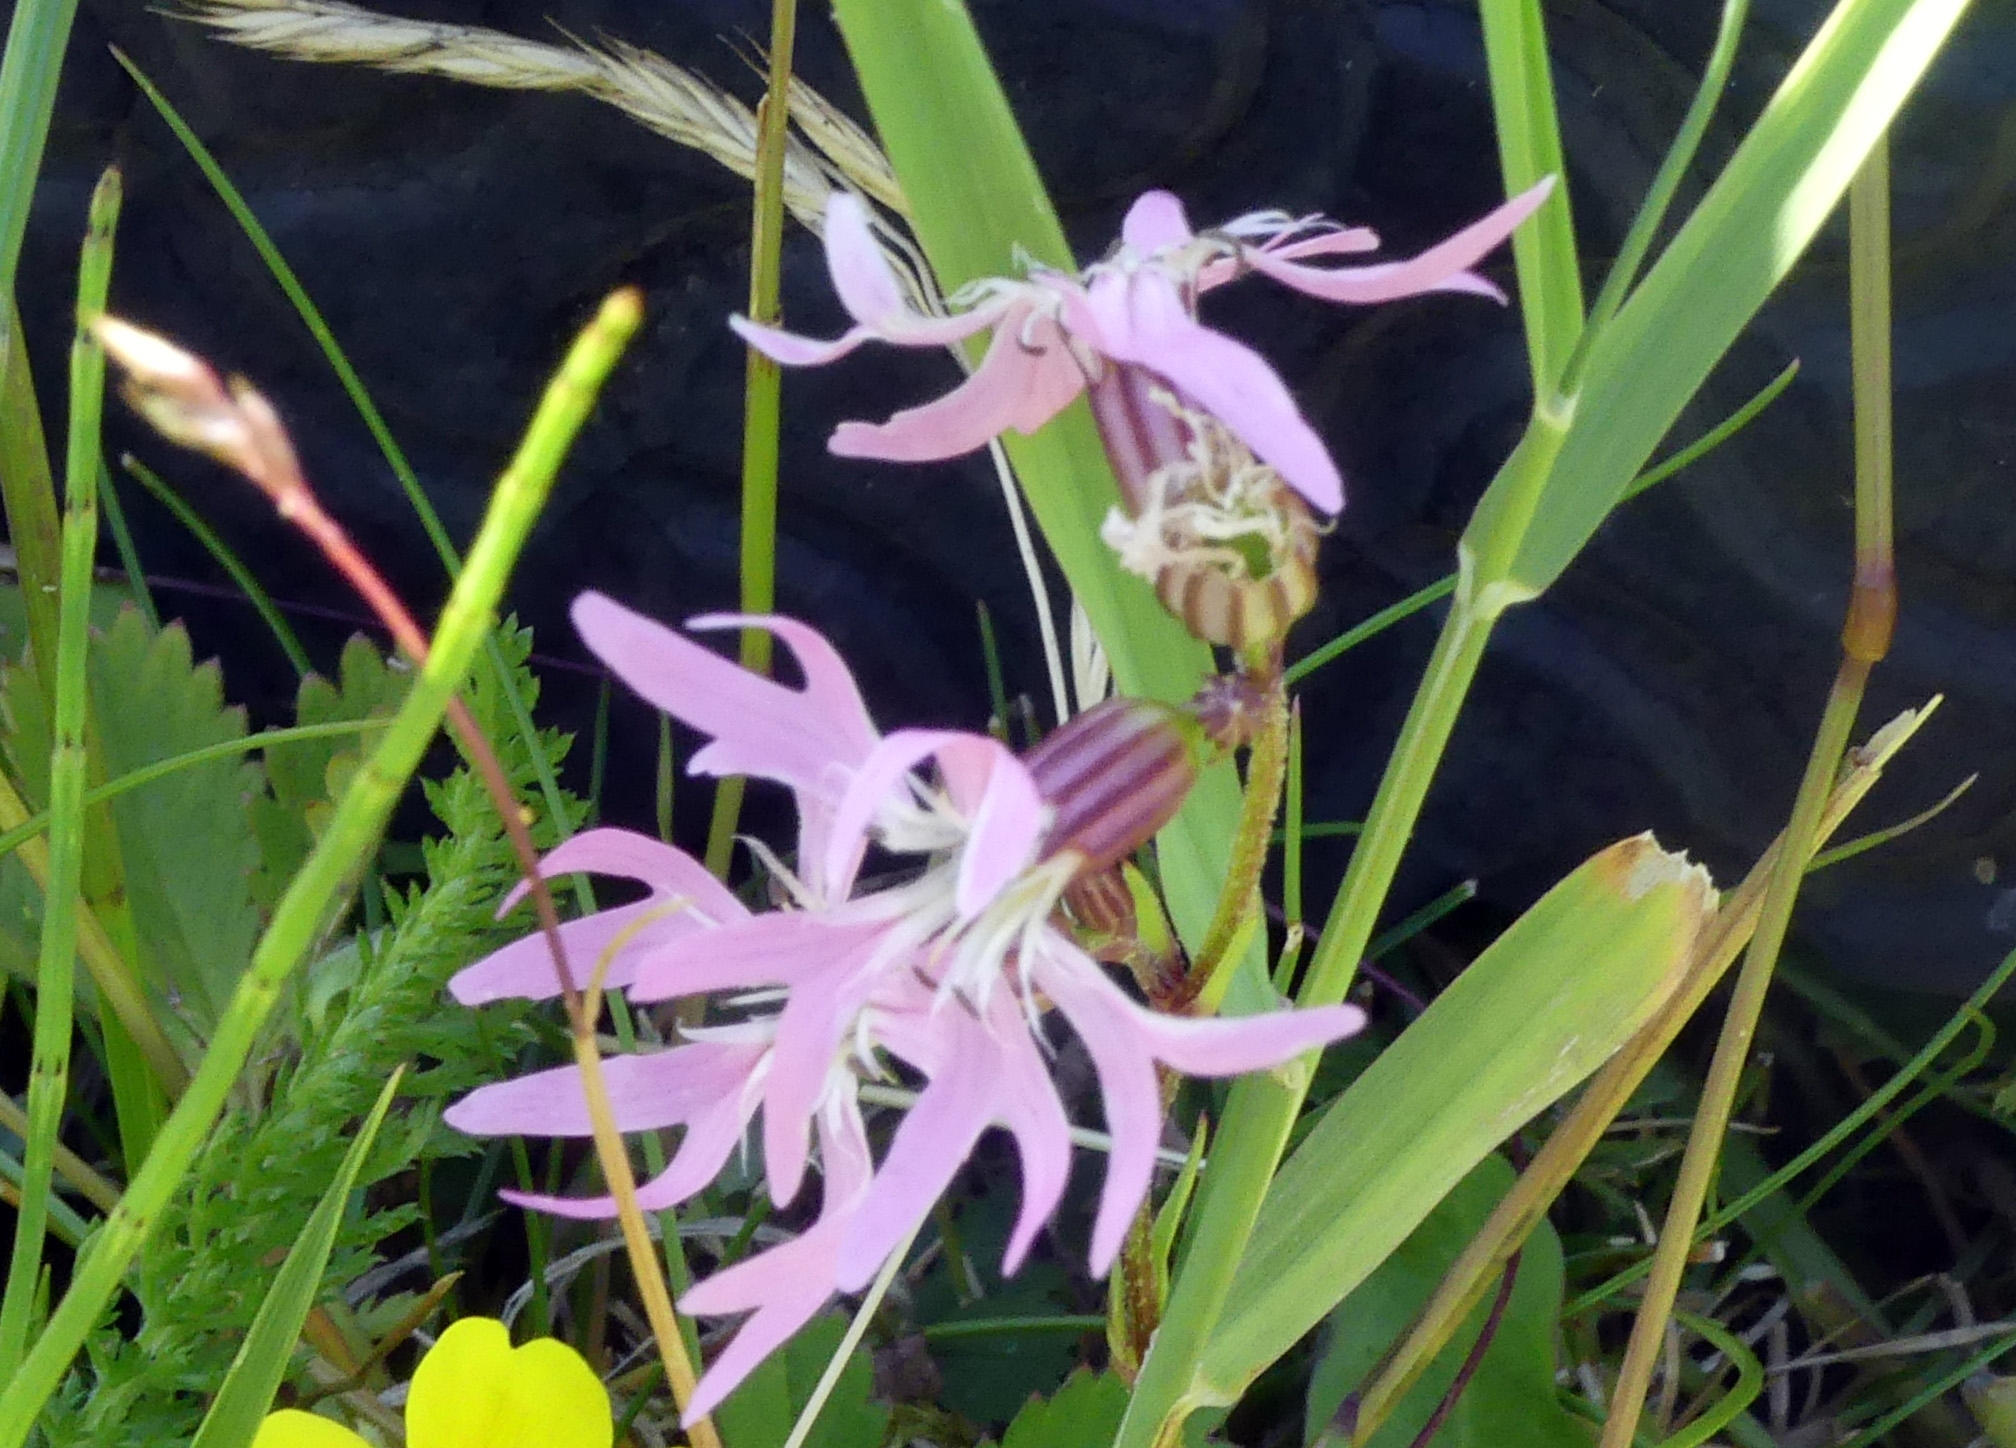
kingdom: Plantae
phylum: Tracheophyta
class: Magnoliopsida
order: Caryophyllales
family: Caryophyllaceae
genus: Silene
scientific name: Silene flos-cuculi
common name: Ragged-robin
